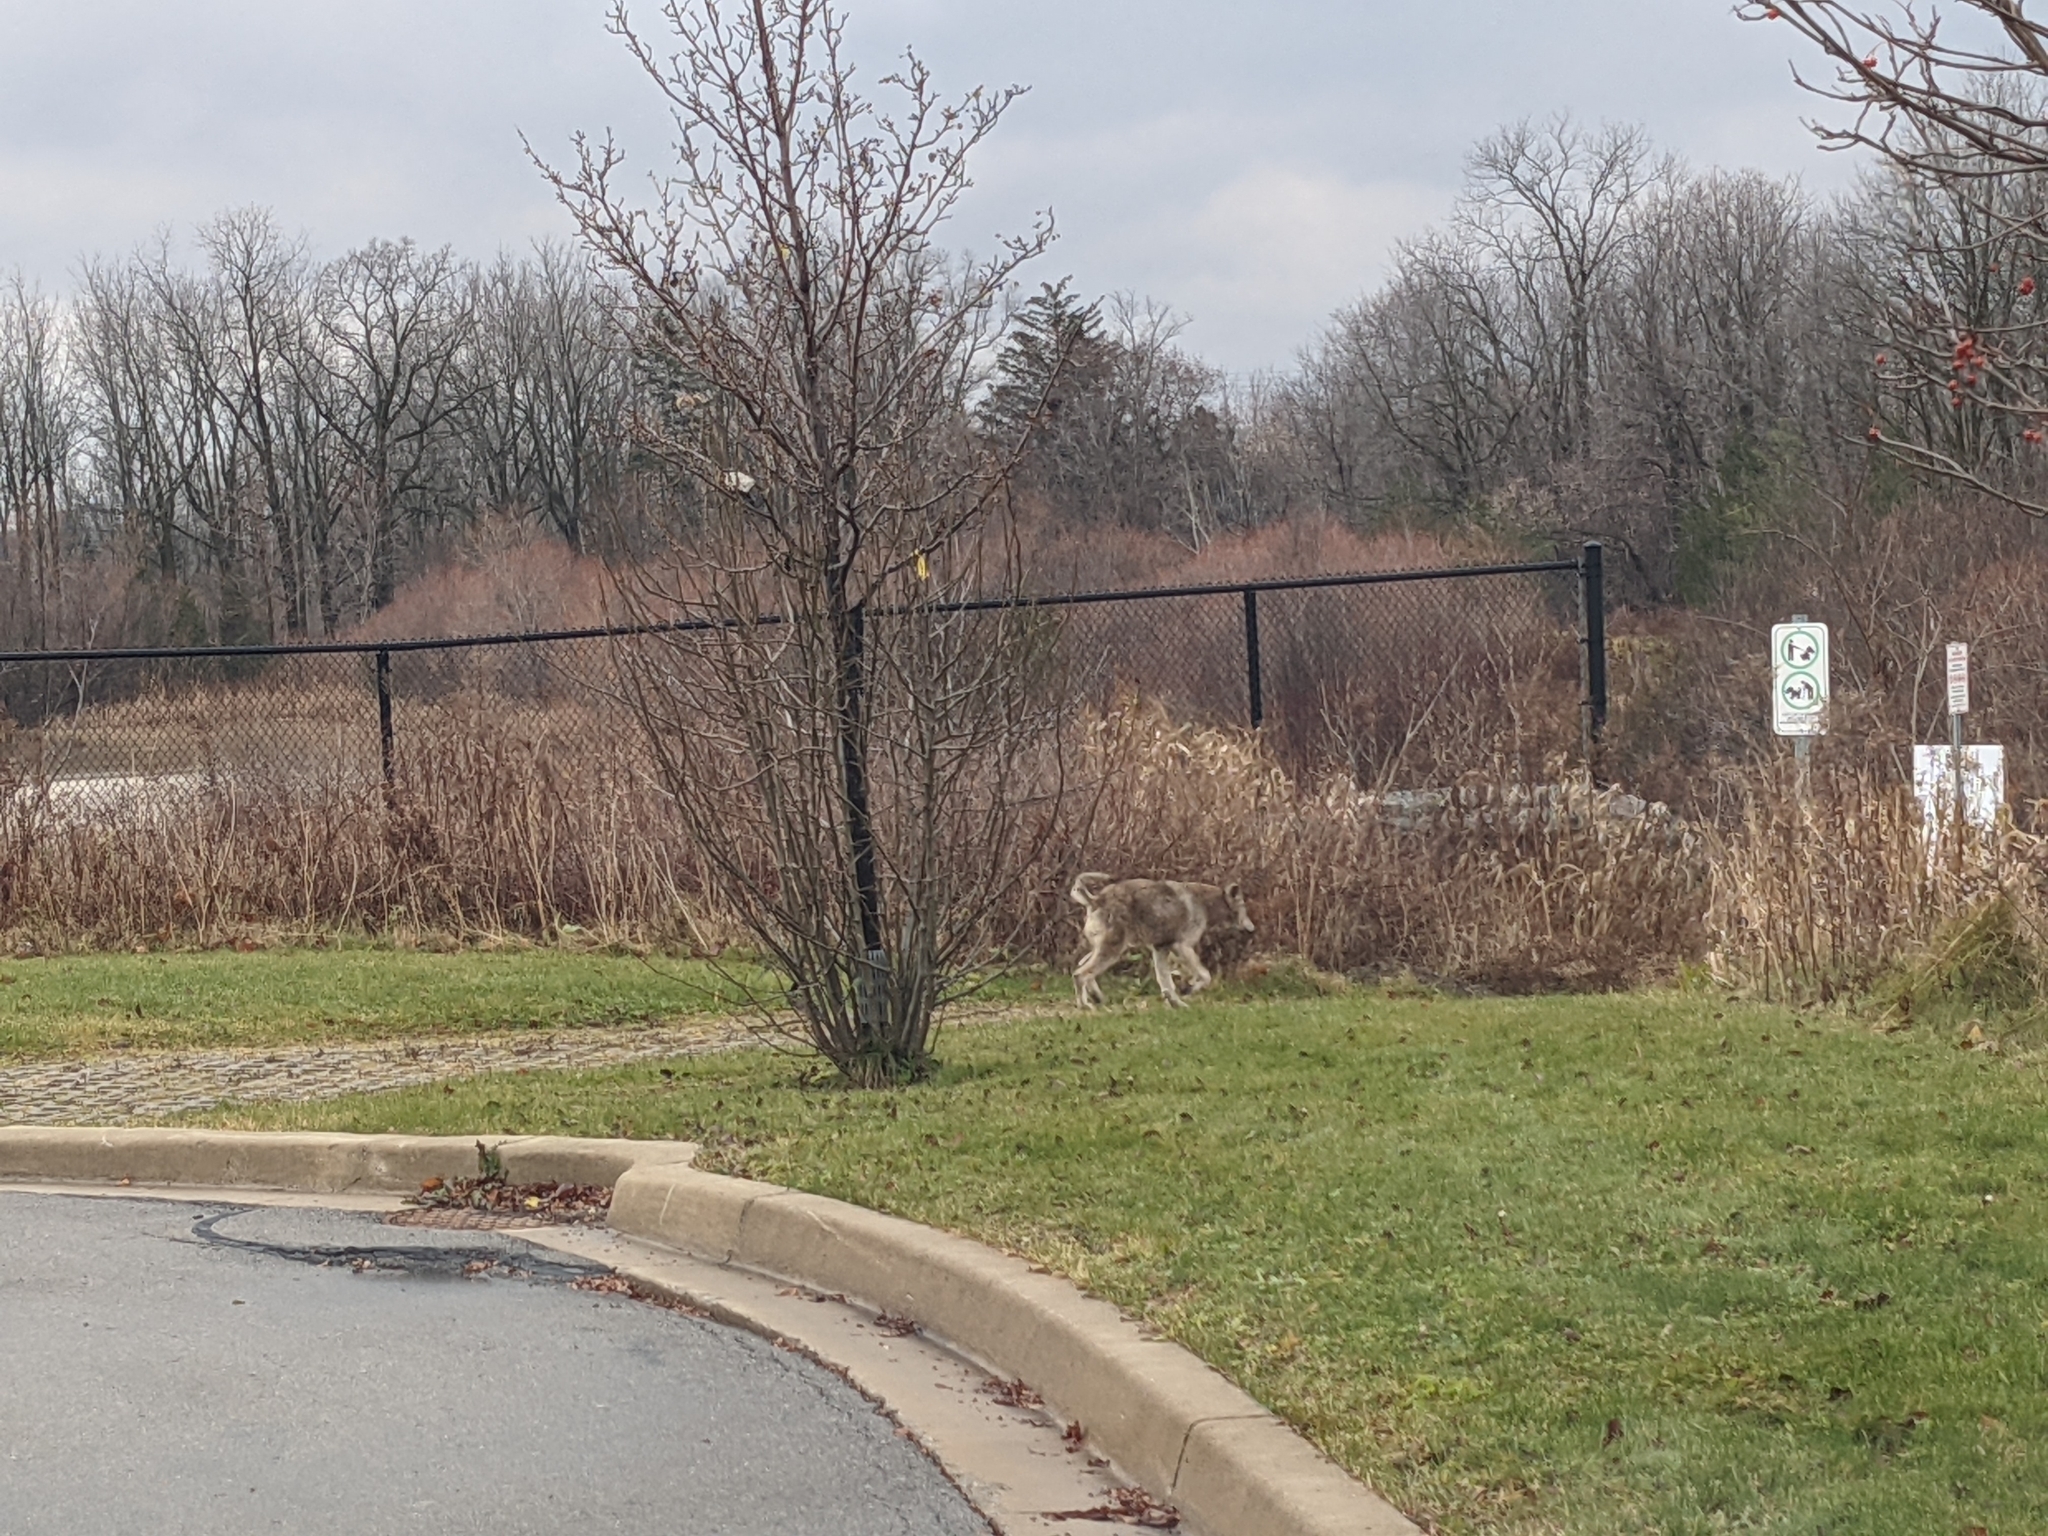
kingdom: Animalia
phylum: Chordata
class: Mammalia
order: Carnivora
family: Canidae
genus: Canis
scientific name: Canis latrans
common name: Coyote
